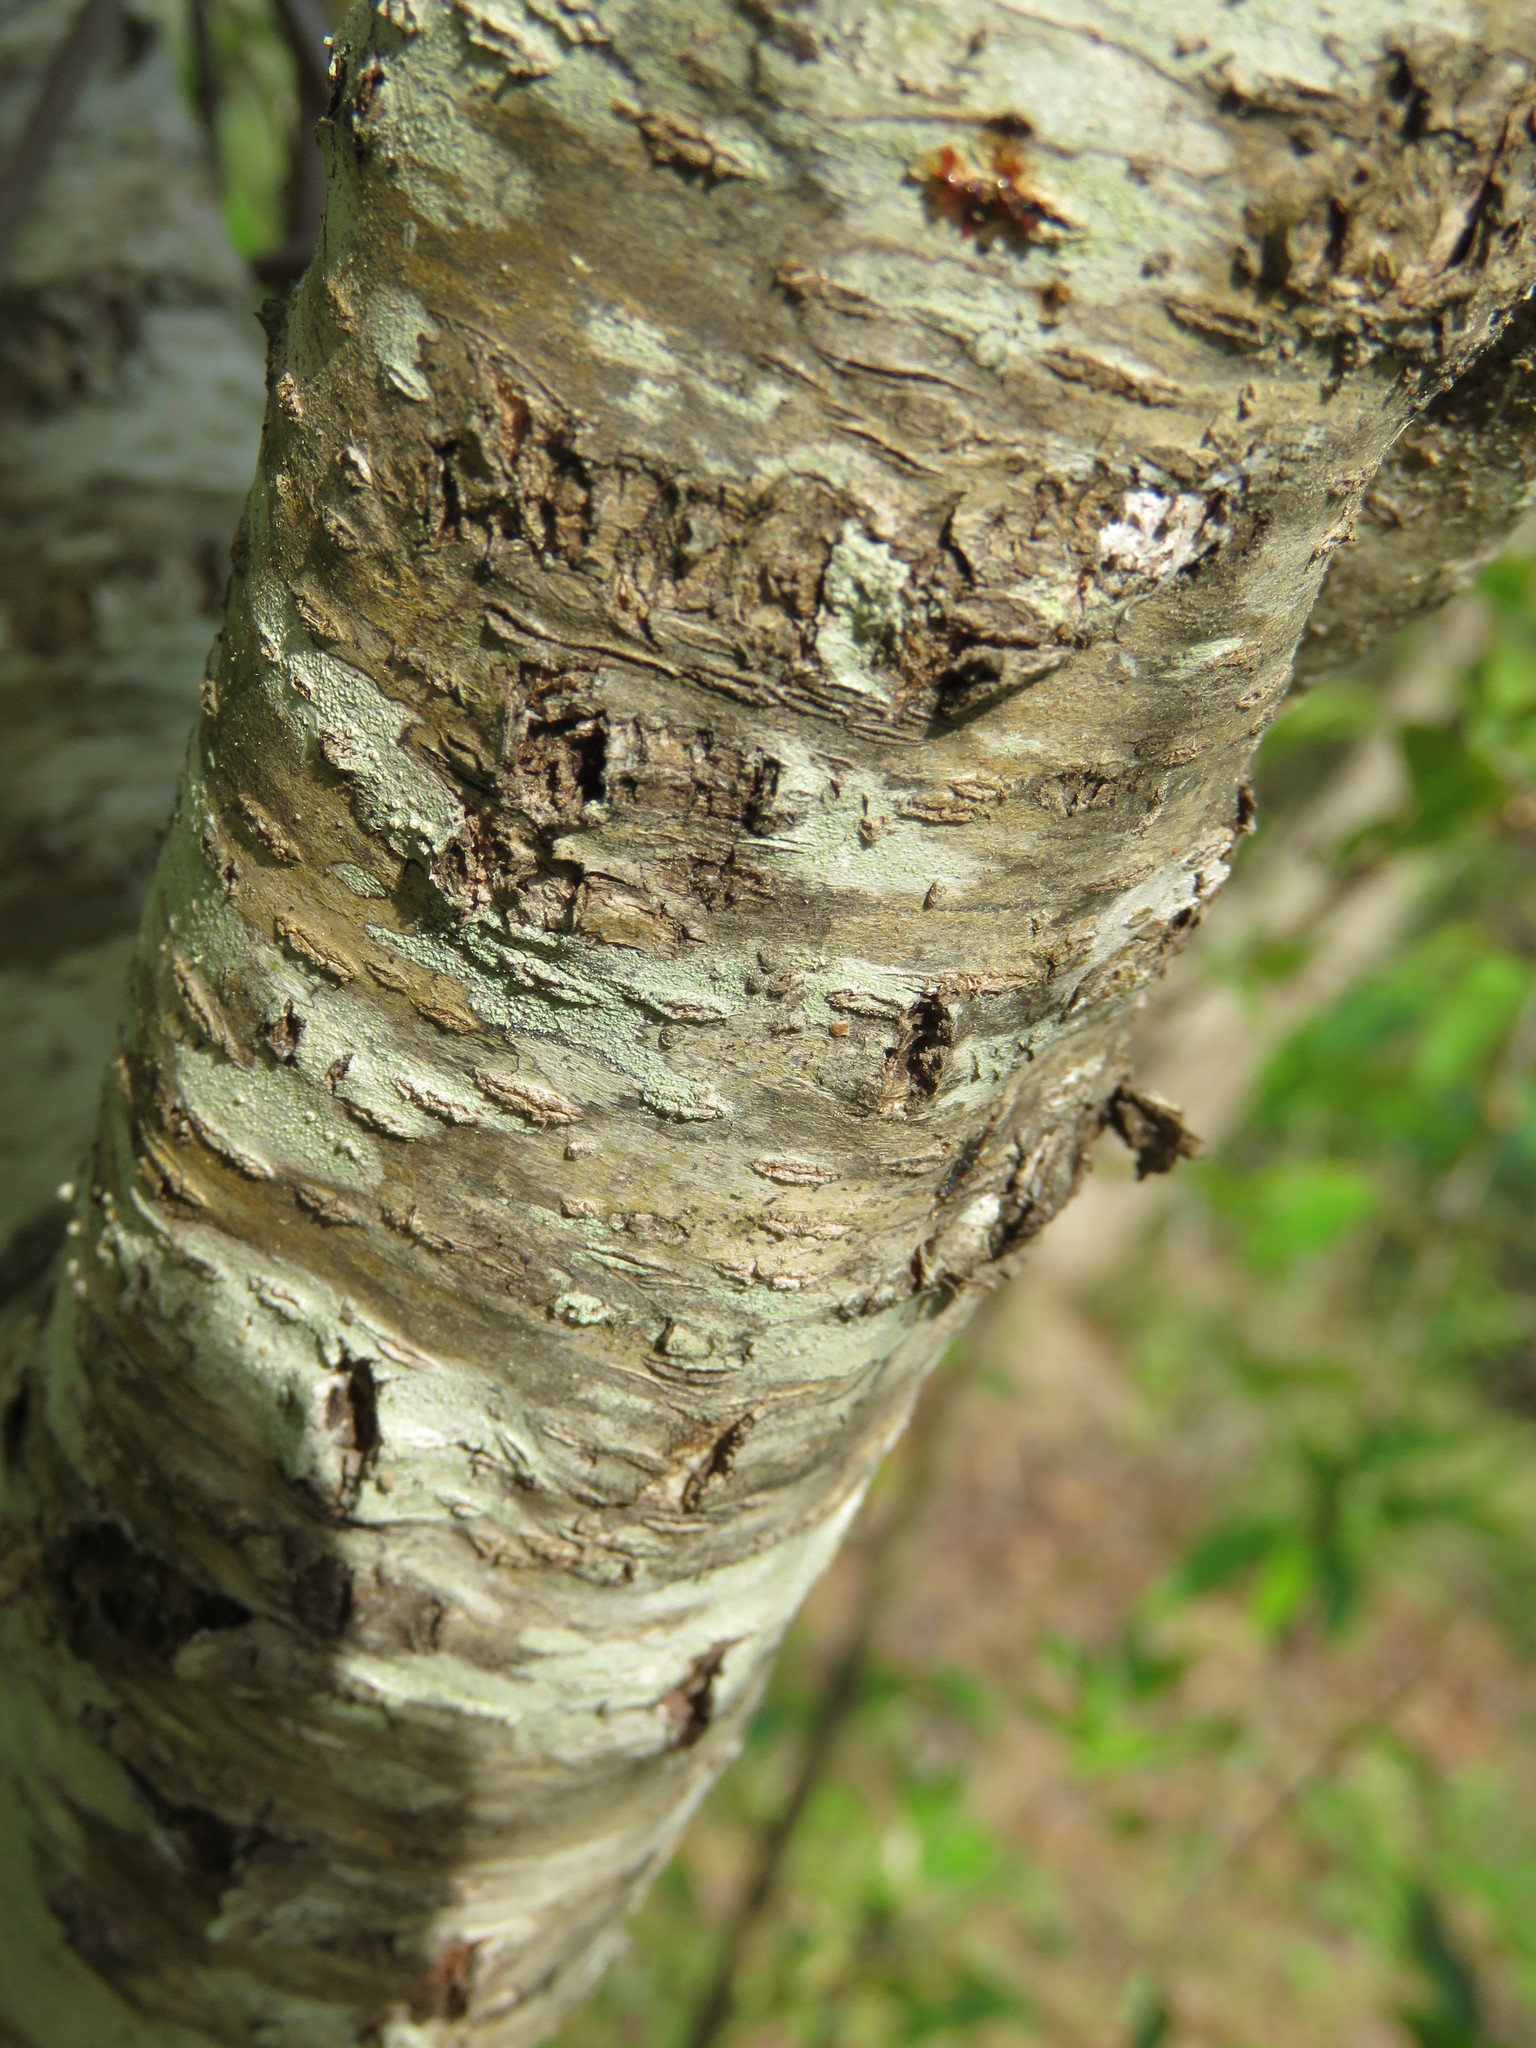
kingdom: Plantae
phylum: Tracheophyta
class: Magnoliopsida
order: Rosales
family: Rosaceae
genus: Prunus
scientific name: Prunus serotina
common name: Black cherry
